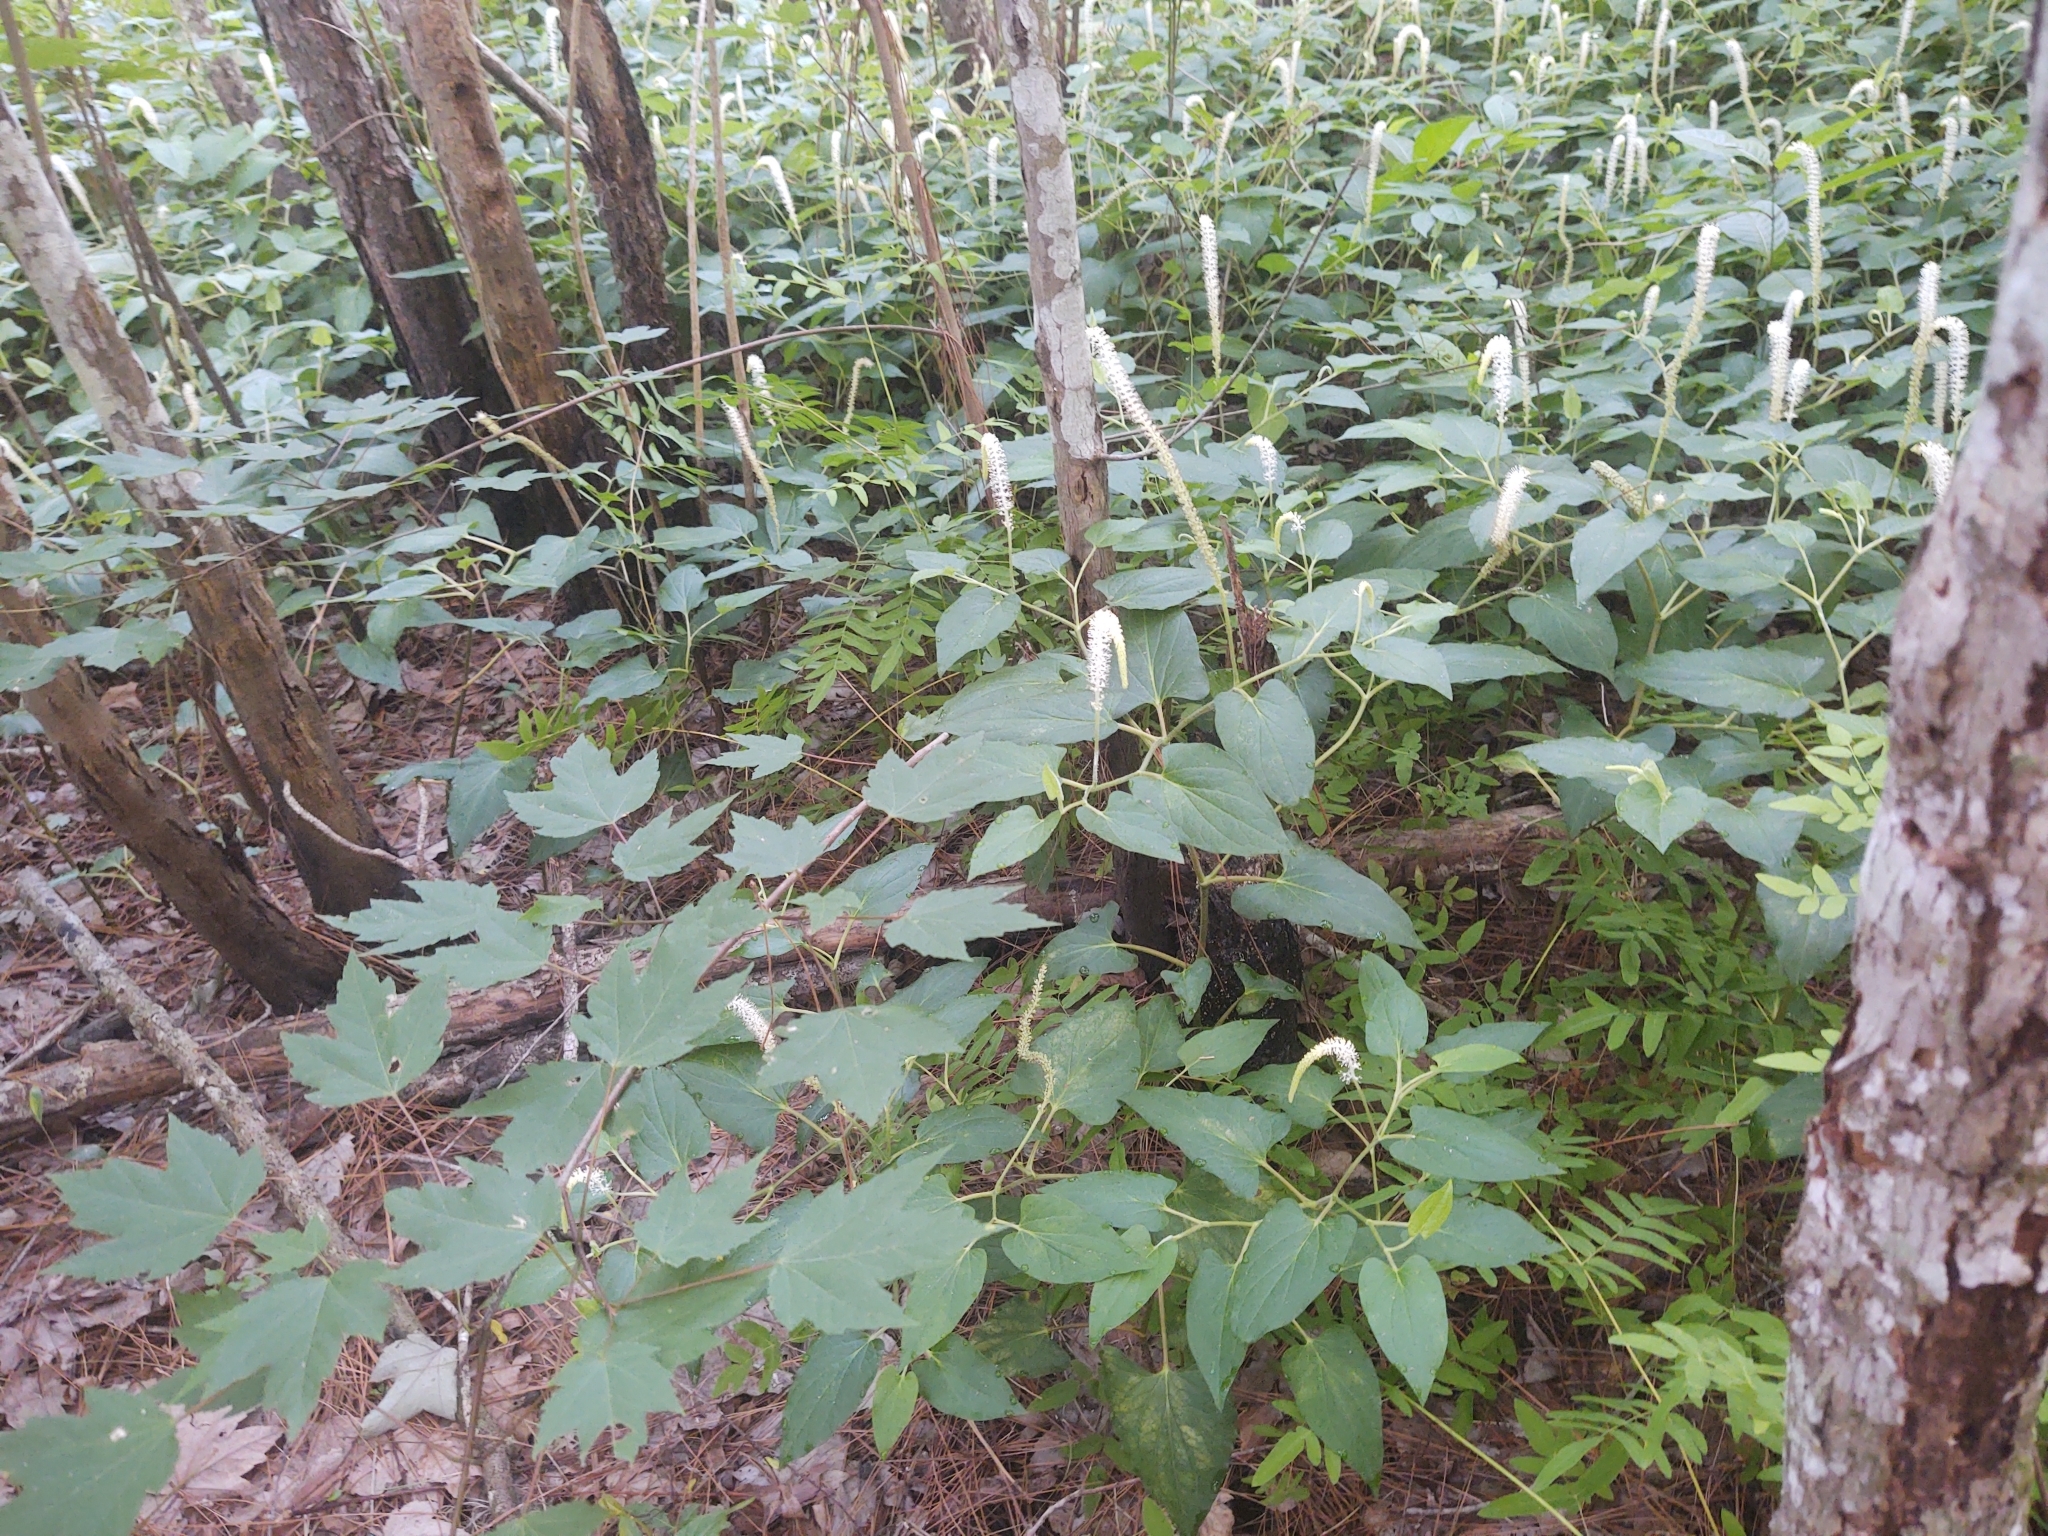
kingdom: Plantae
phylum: Tracheophyta
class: Magnoliopsida
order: Piperales
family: Saururaceae
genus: Saururus
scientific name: Saururus cernuus
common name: Lizard's-tail
